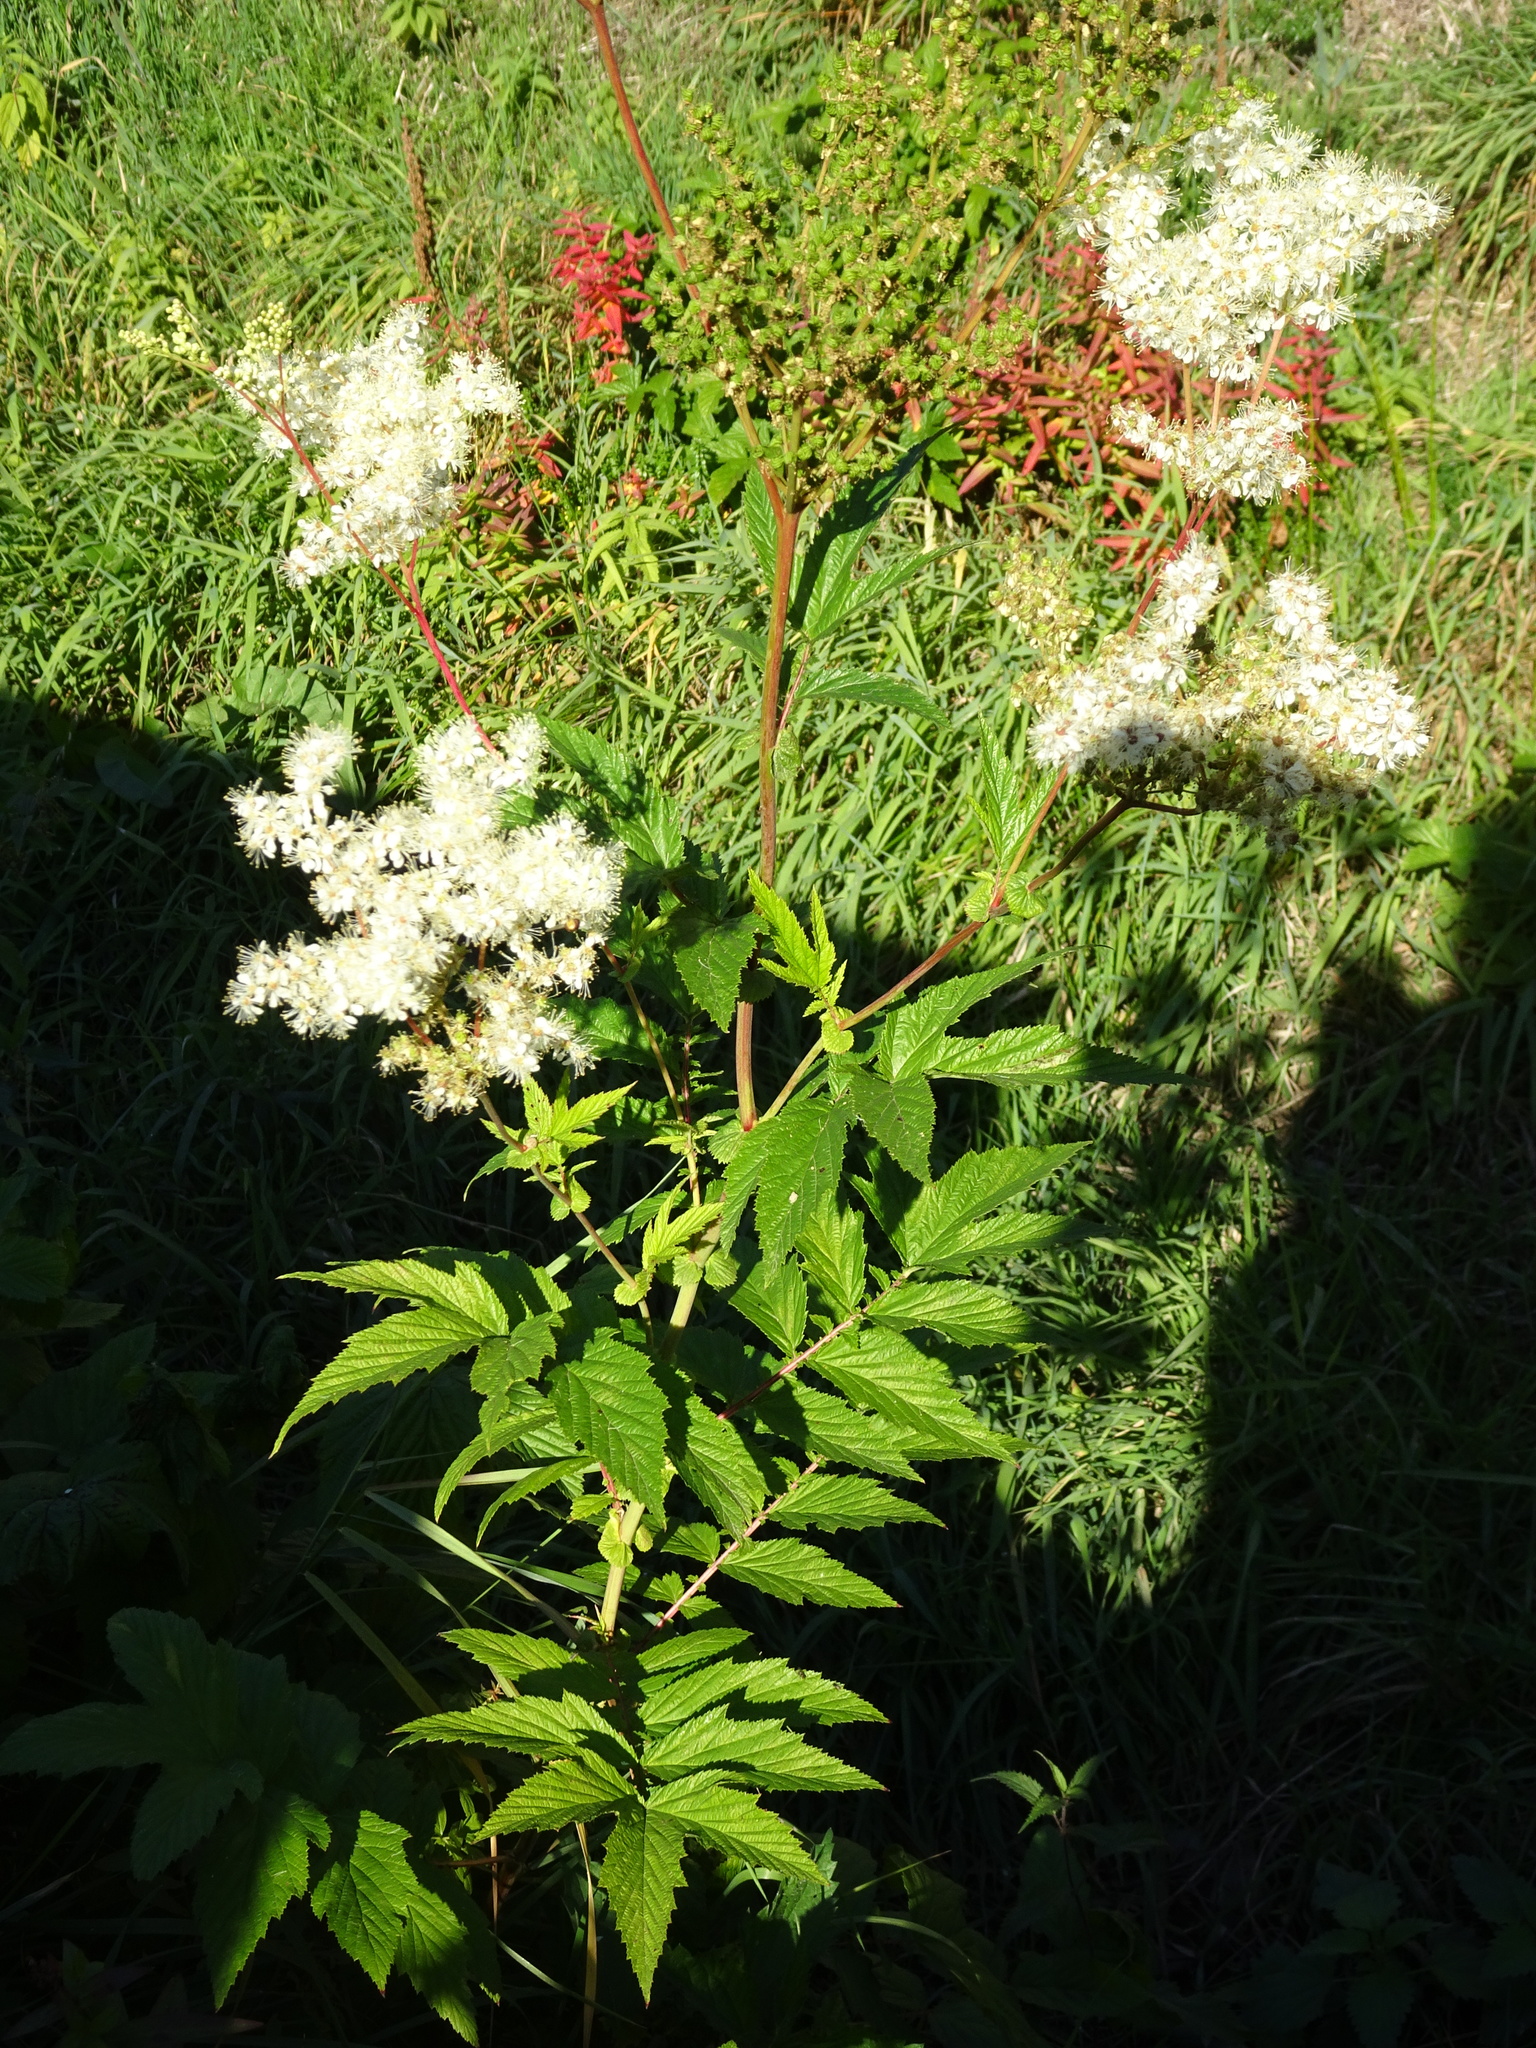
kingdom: Plantae
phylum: Tracheophyta
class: Magnoliopsida
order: Rosales
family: Rosaceae
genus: Filipendula
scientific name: Filipendula ulmaria
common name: Meadowsweet
